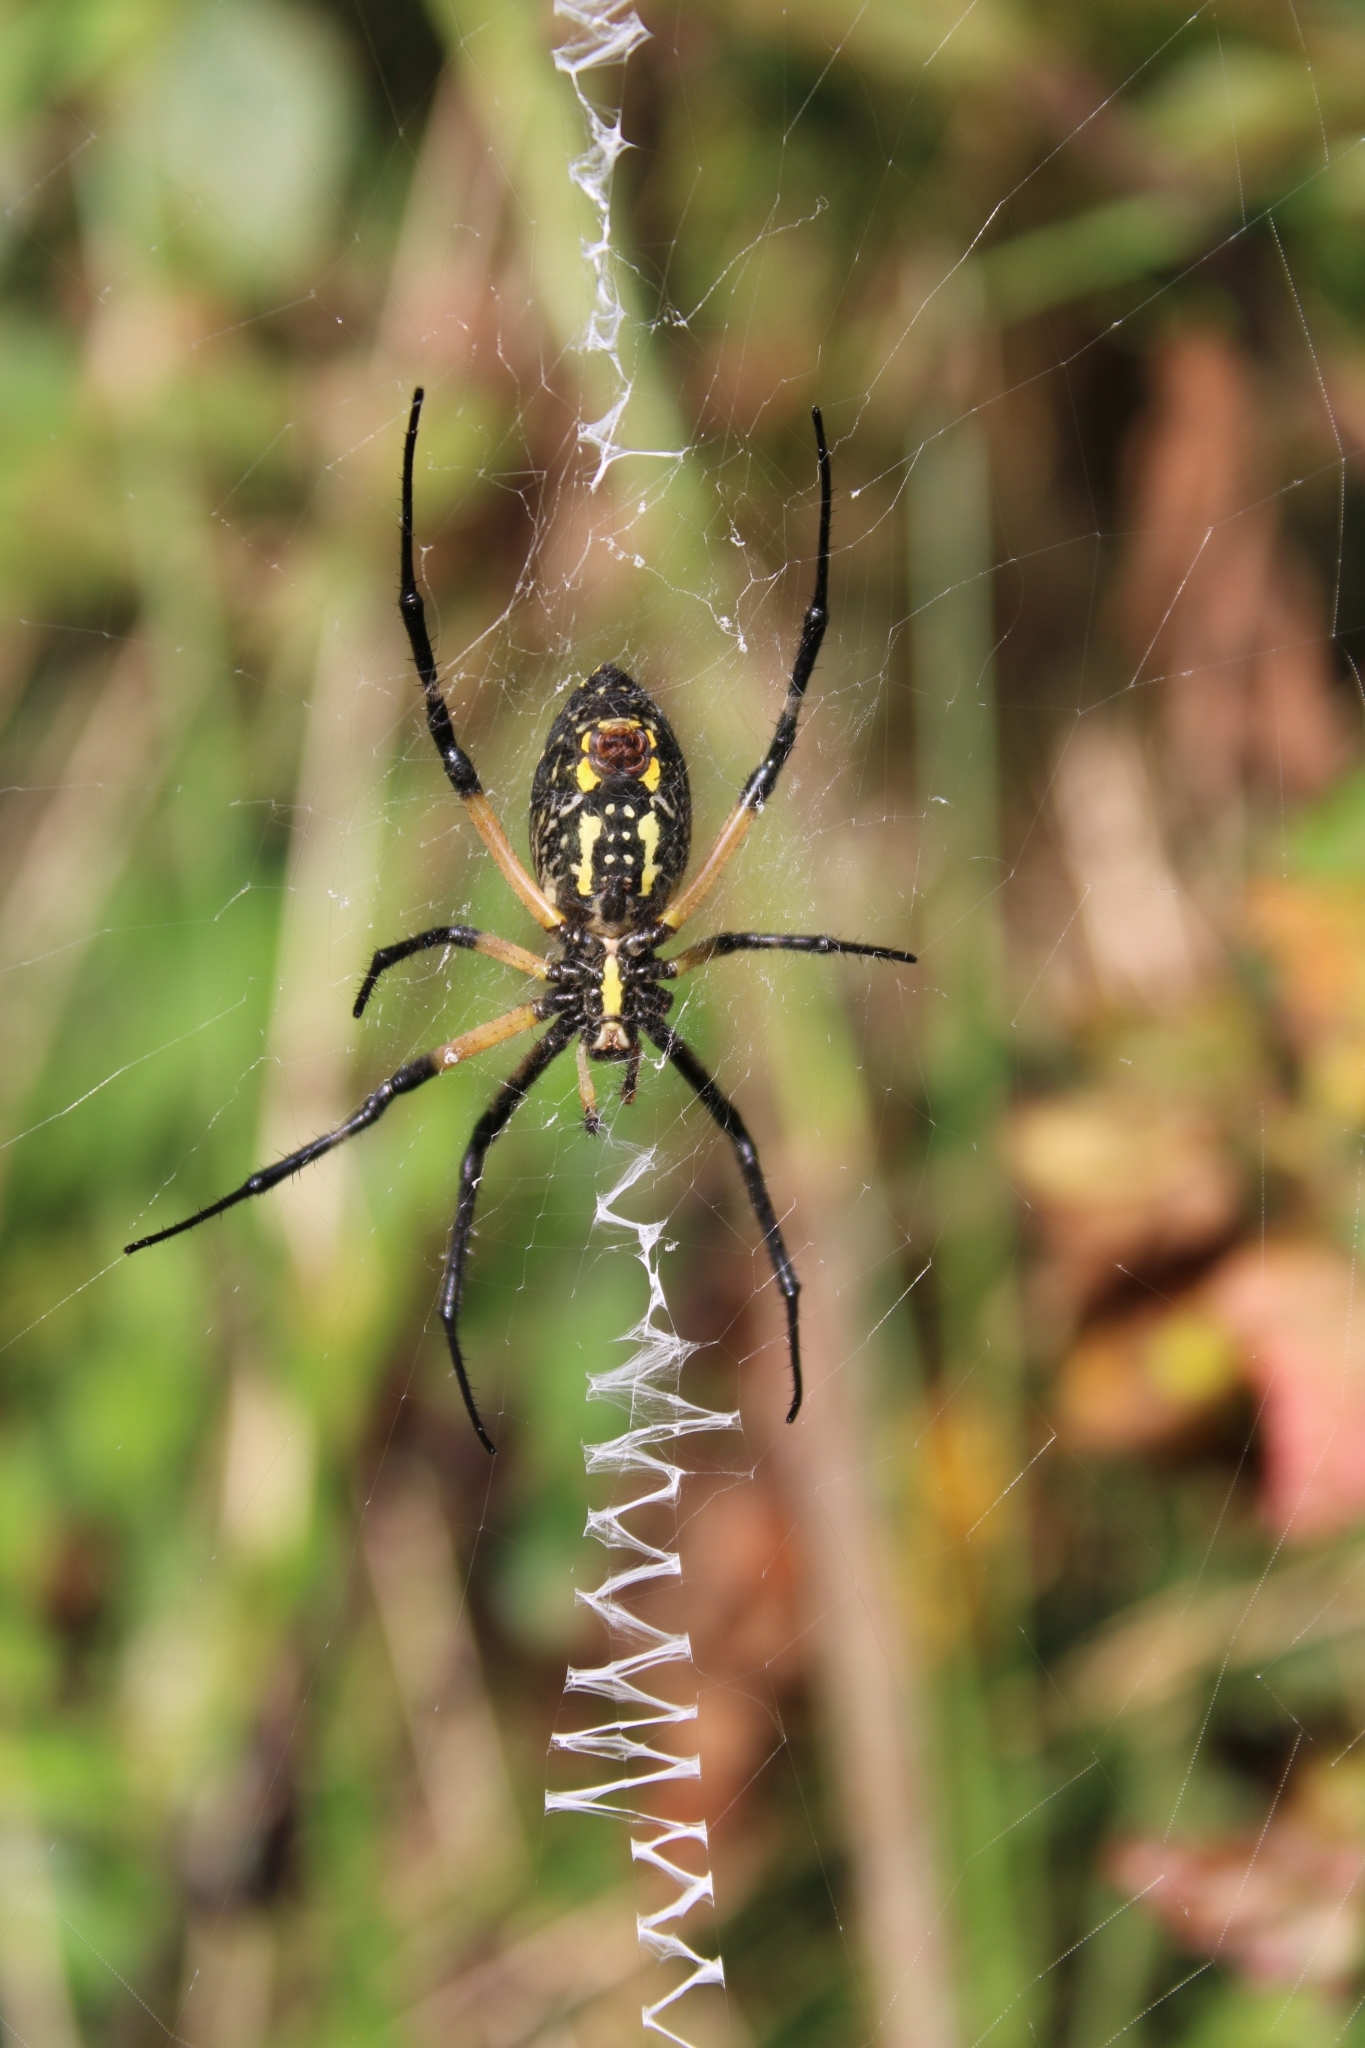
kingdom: Animalia
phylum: Arthropoda
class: Arachnida
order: Araneae
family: Araneidae
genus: Argiope
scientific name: Argiope aurantia
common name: Orb weavers
